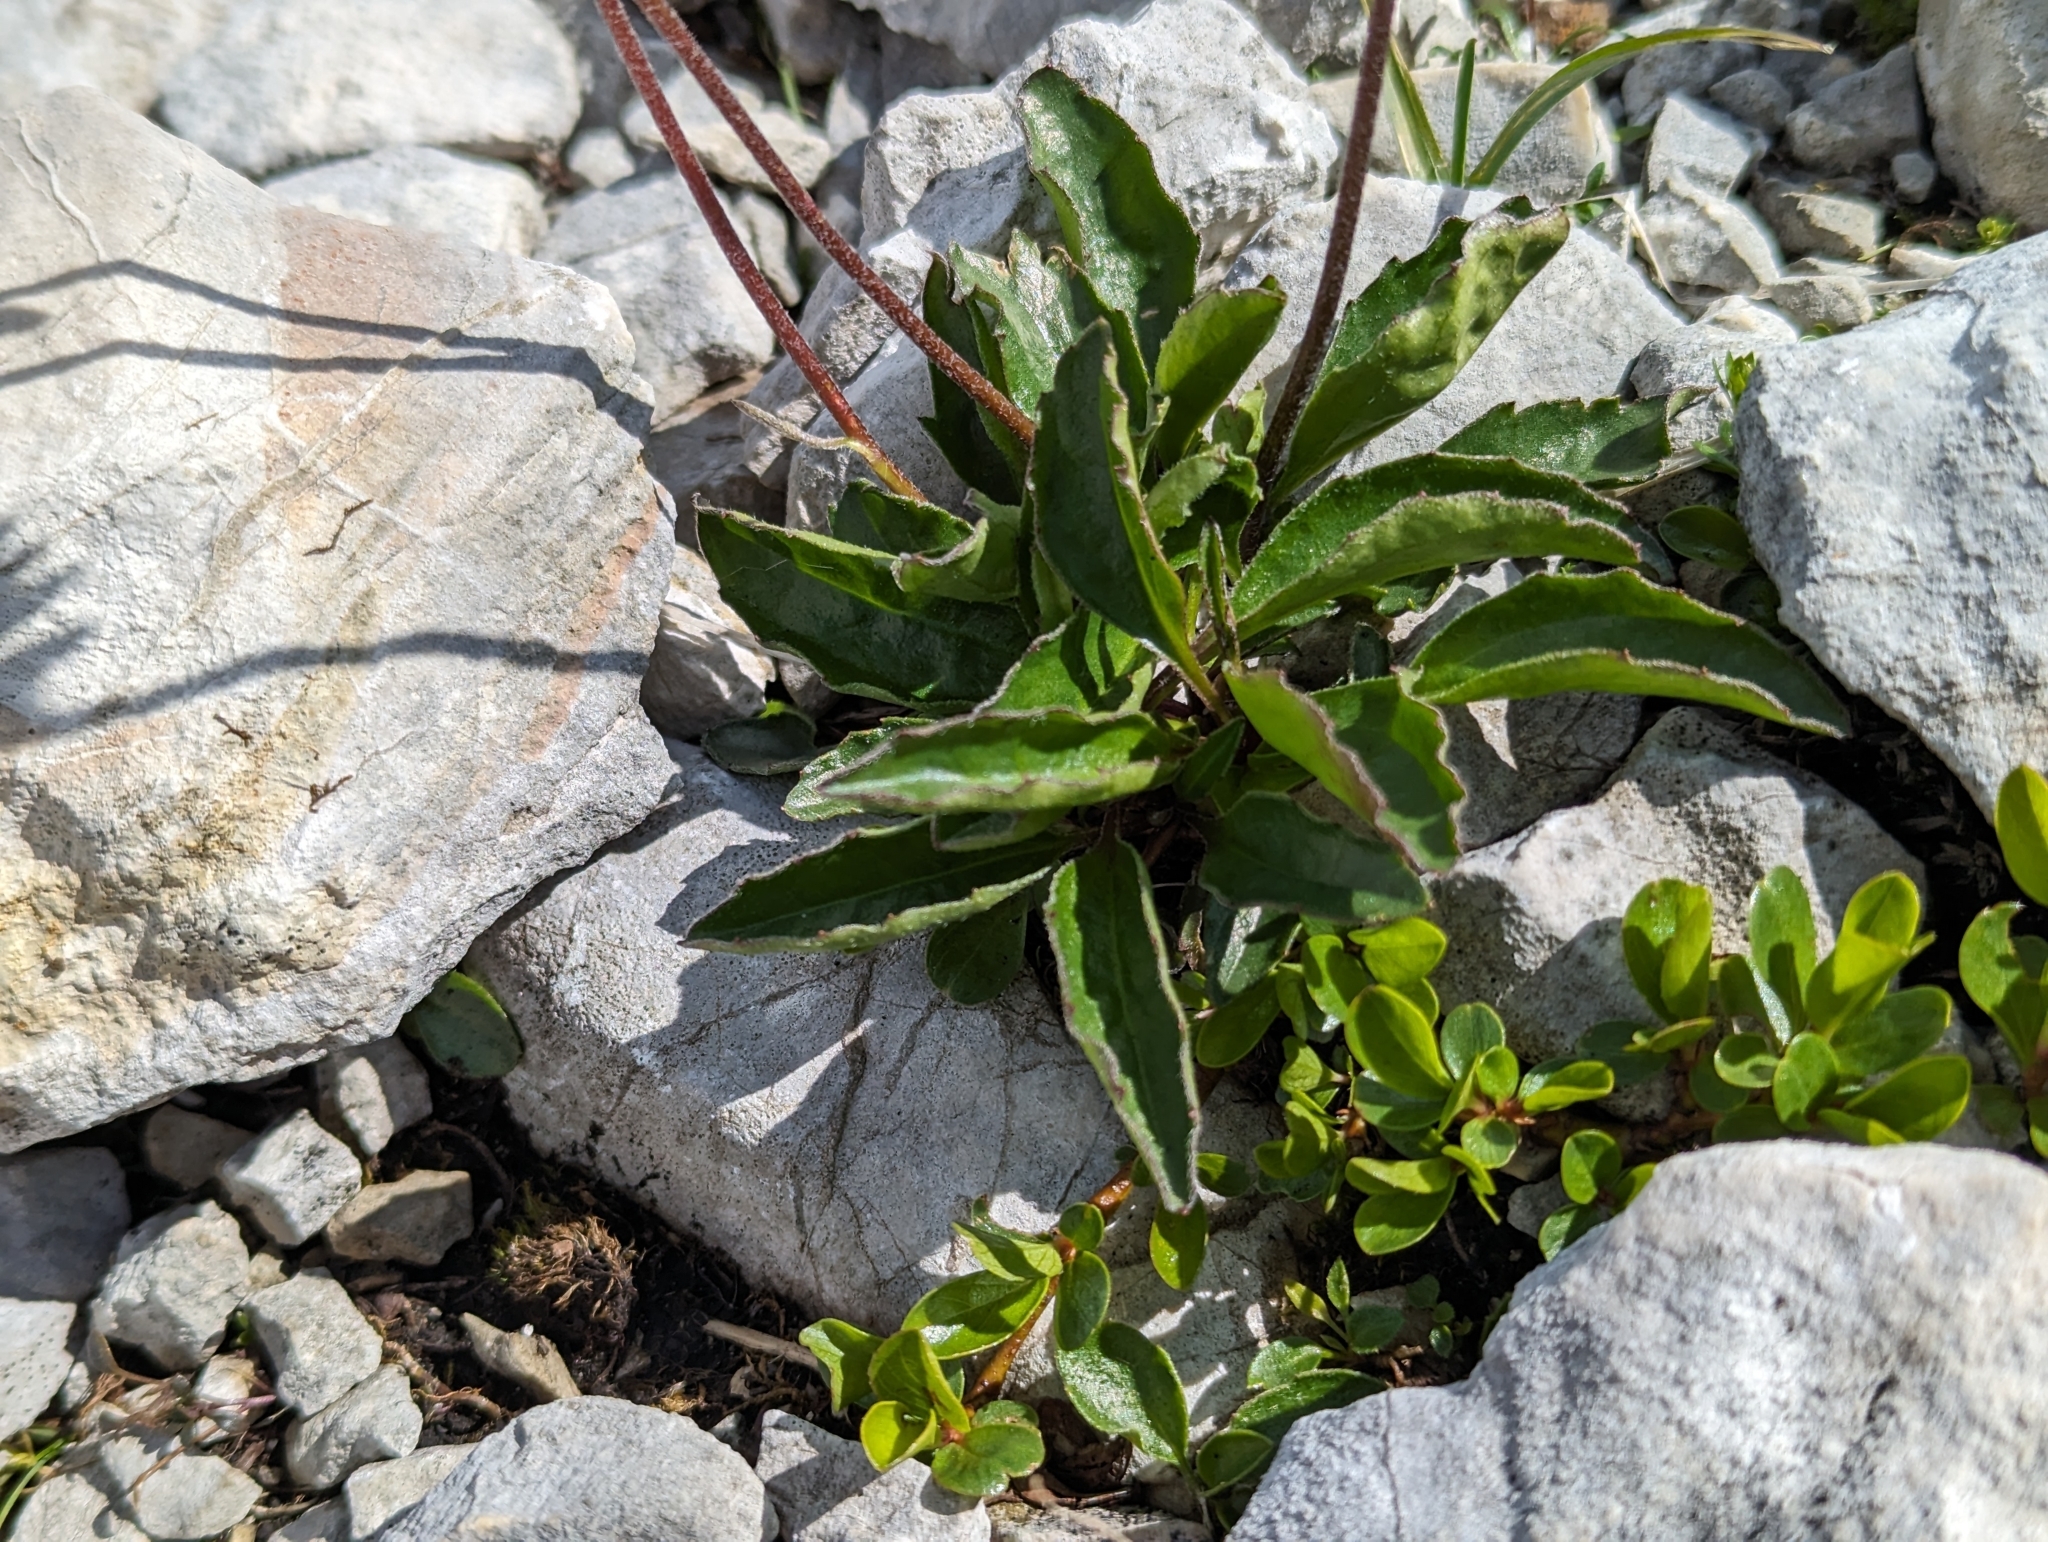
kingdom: Plantae
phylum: Tracheophyta
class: Magnoliopsida
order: Asterales
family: Asteraceae
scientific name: Asteraceae
